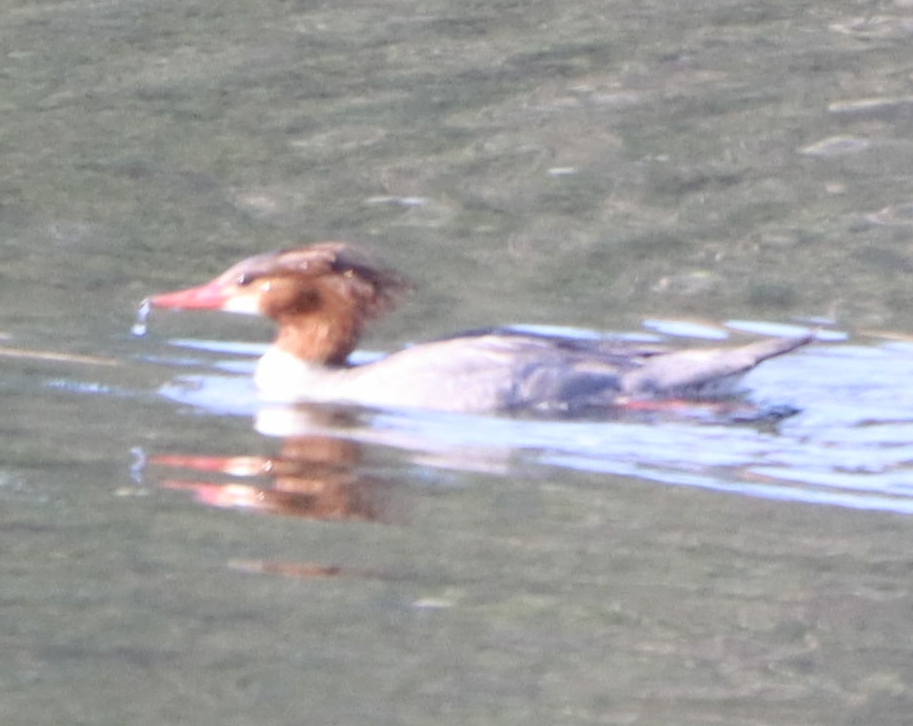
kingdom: Animalia
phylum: Chordata
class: Aves
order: Anseriformes
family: Anatidae
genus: Mergus
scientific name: Mergus merganser
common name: Common merganser
